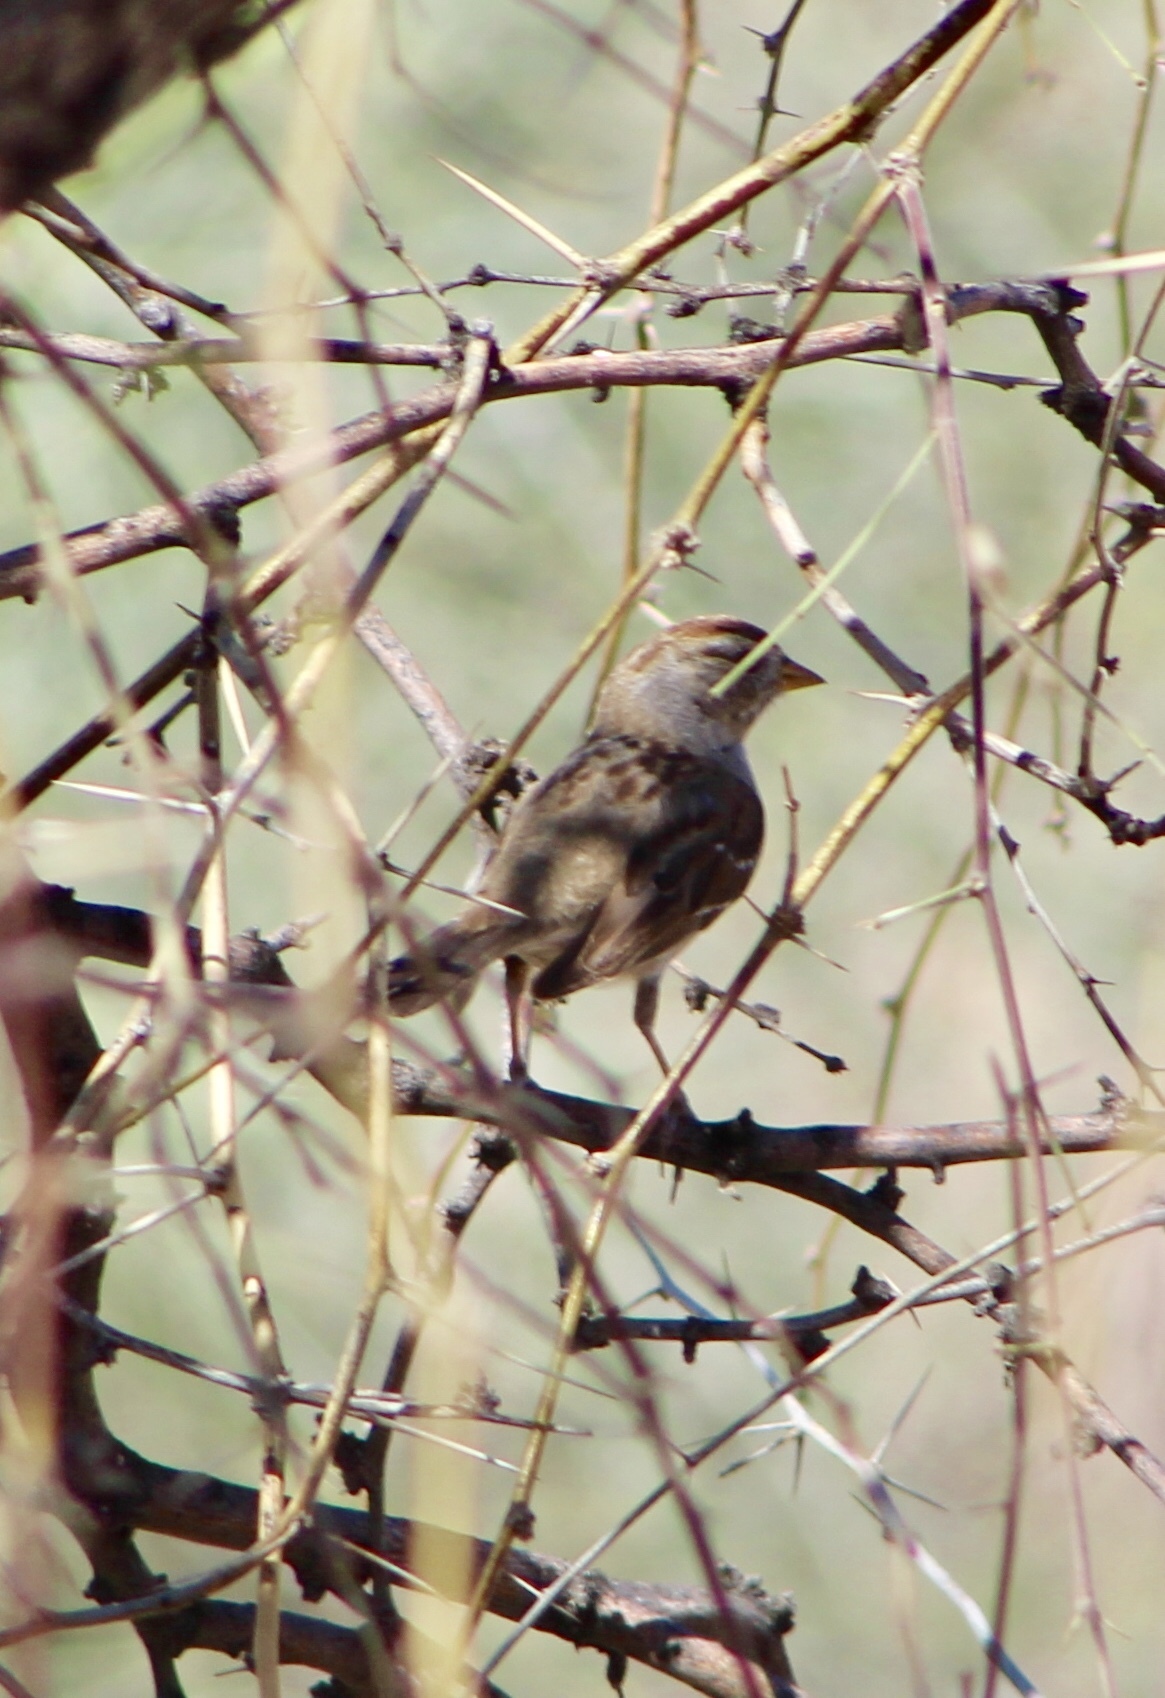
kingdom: Animalia
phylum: Chordata
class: Aves
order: Passeriformes
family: Passerellidae
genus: Zonotrichia
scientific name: Zonotrichia leucophrys
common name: White-crowned sparrow
